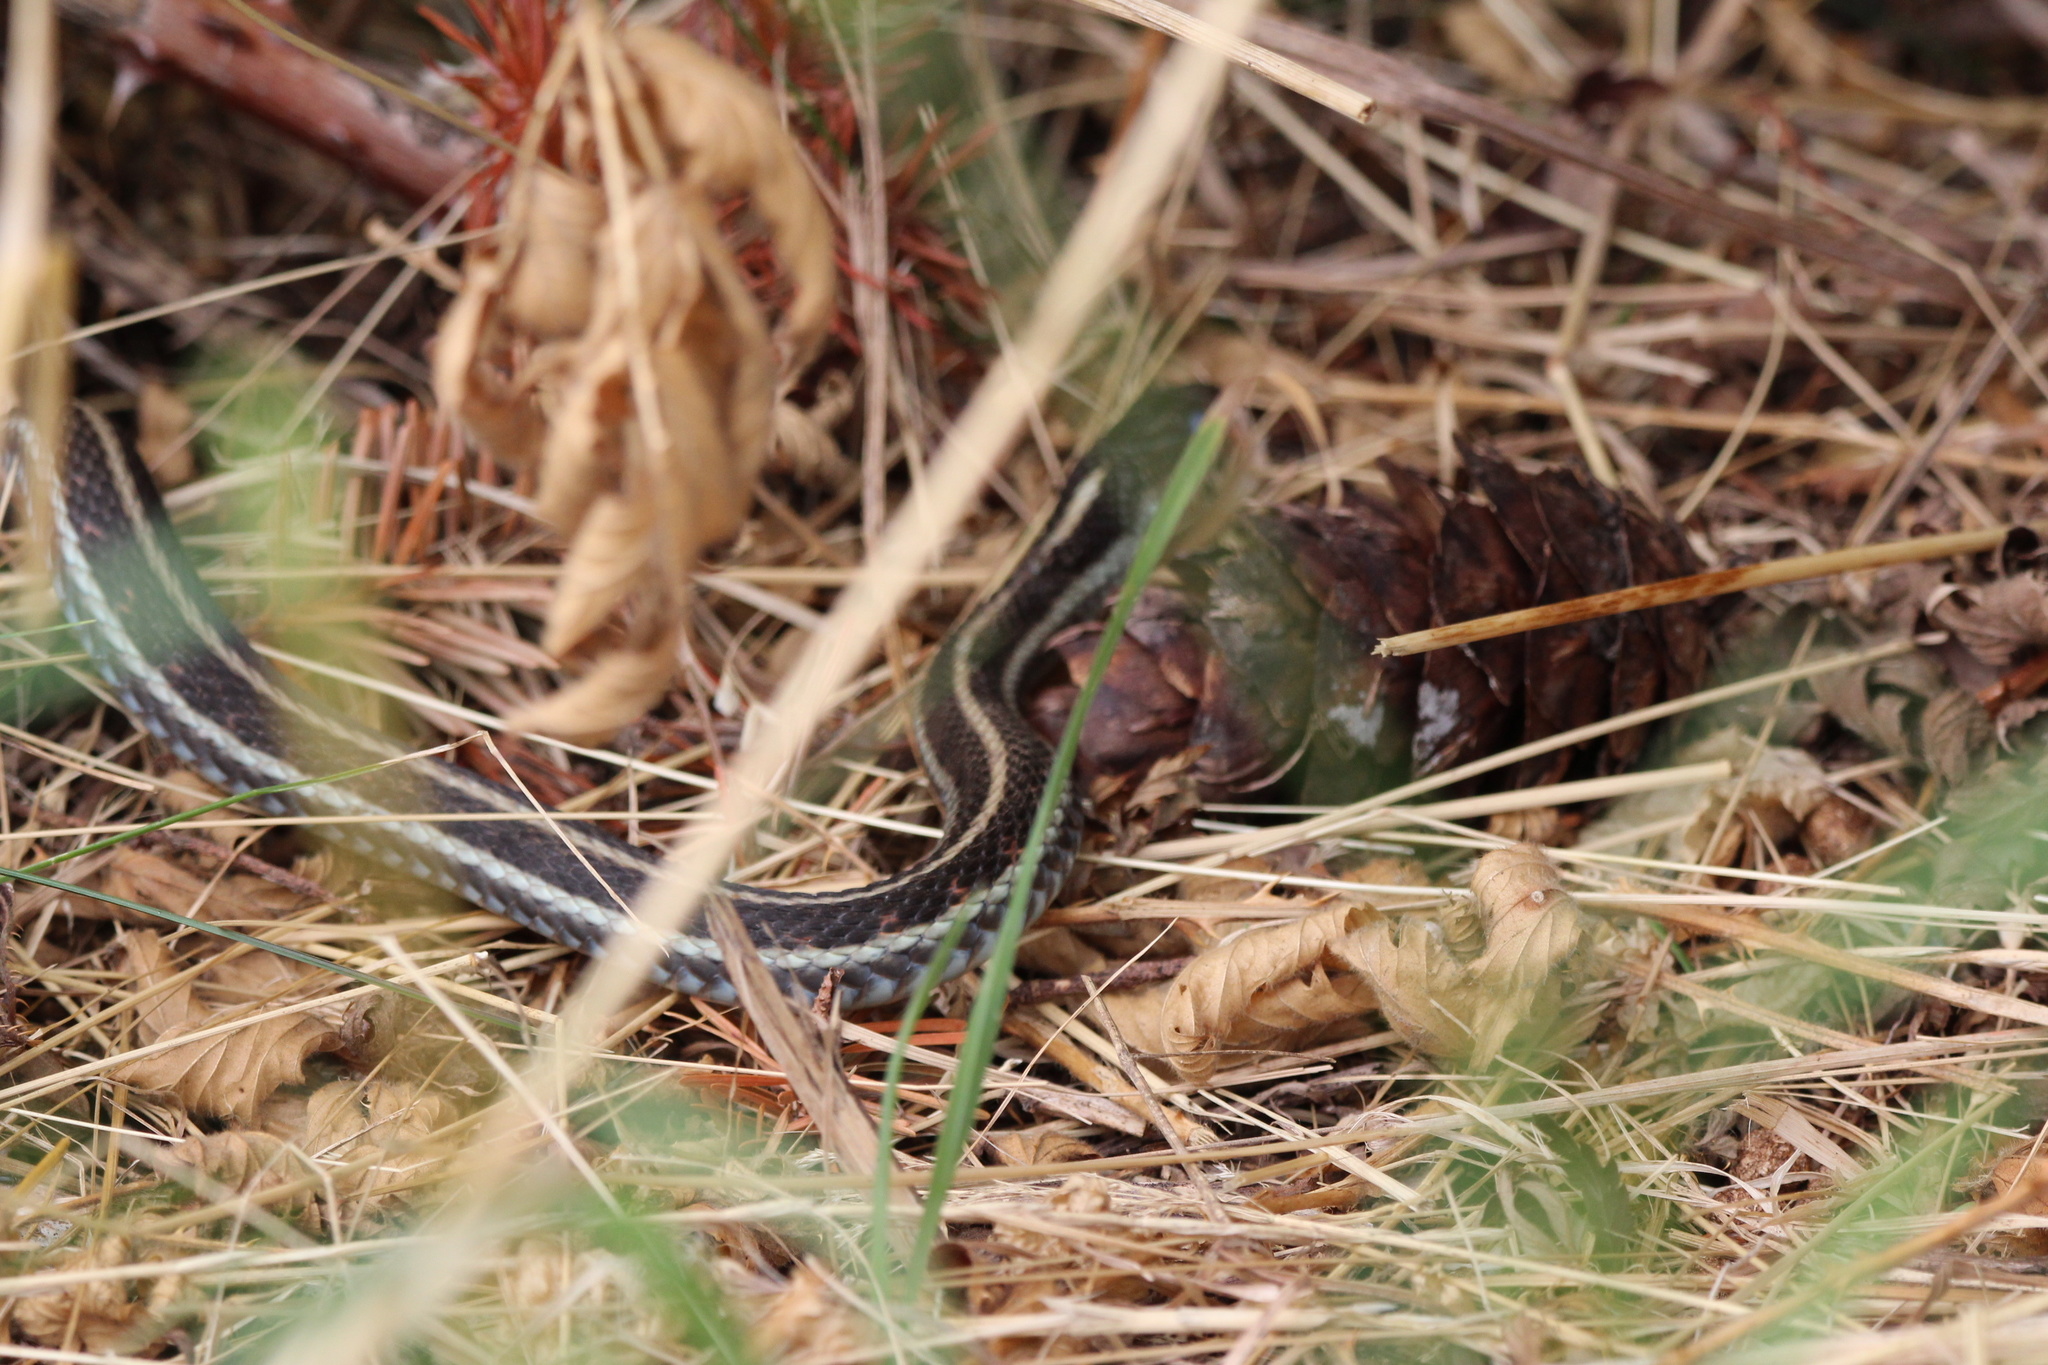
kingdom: Animalia
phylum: Chordata
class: Squamata
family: Colubridae
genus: Thamnophis
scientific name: Thamnophis sirtalis
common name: Common garter snake
